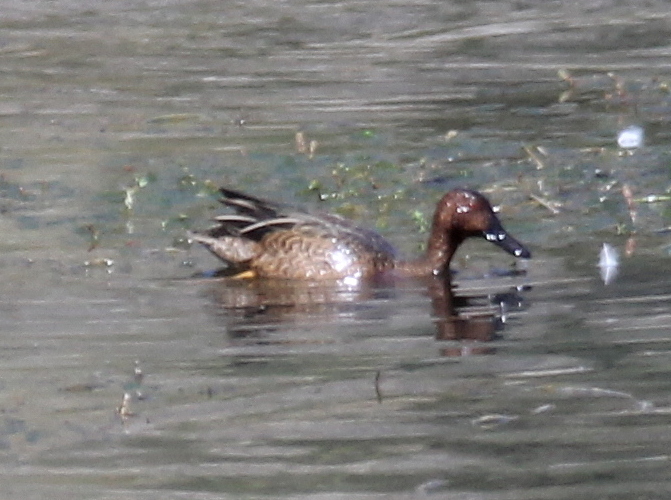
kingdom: Animalia
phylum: Chordata
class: Aves
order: Anseriformes
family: Anatidae
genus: Spatula
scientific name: Spatula cyanoptera
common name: Cinnamon teal
